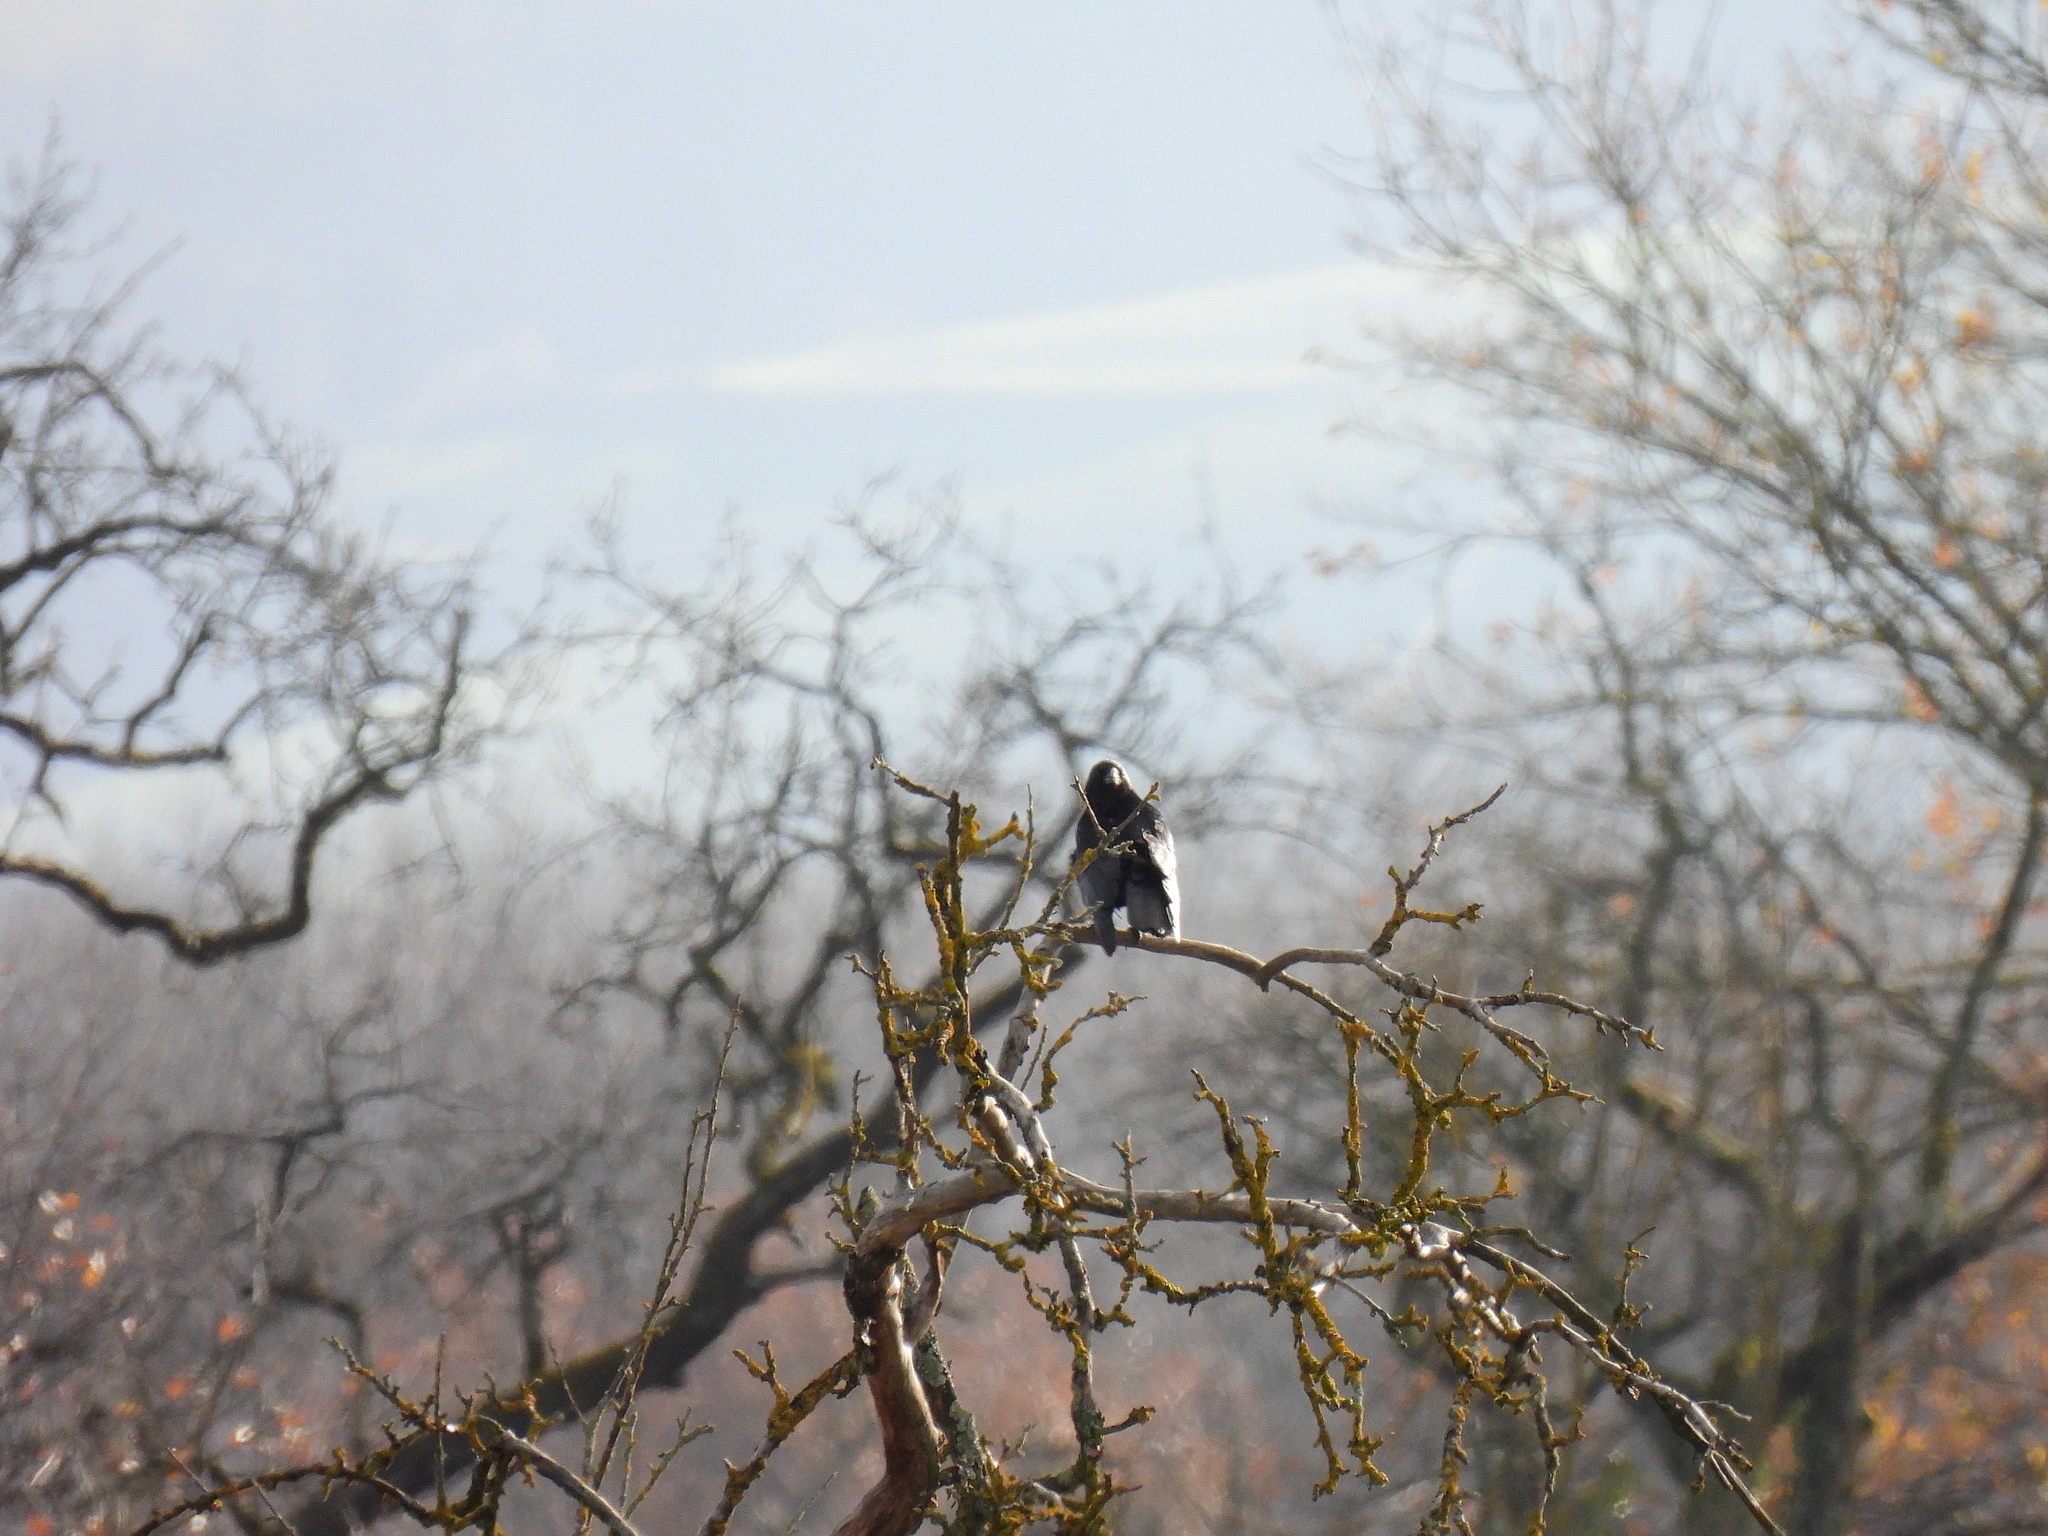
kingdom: Animalia
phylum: Chordata
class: Aves
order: Passeriformes
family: Corvidae
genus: Corvus
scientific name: Corvus corone
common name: Carrion crow
